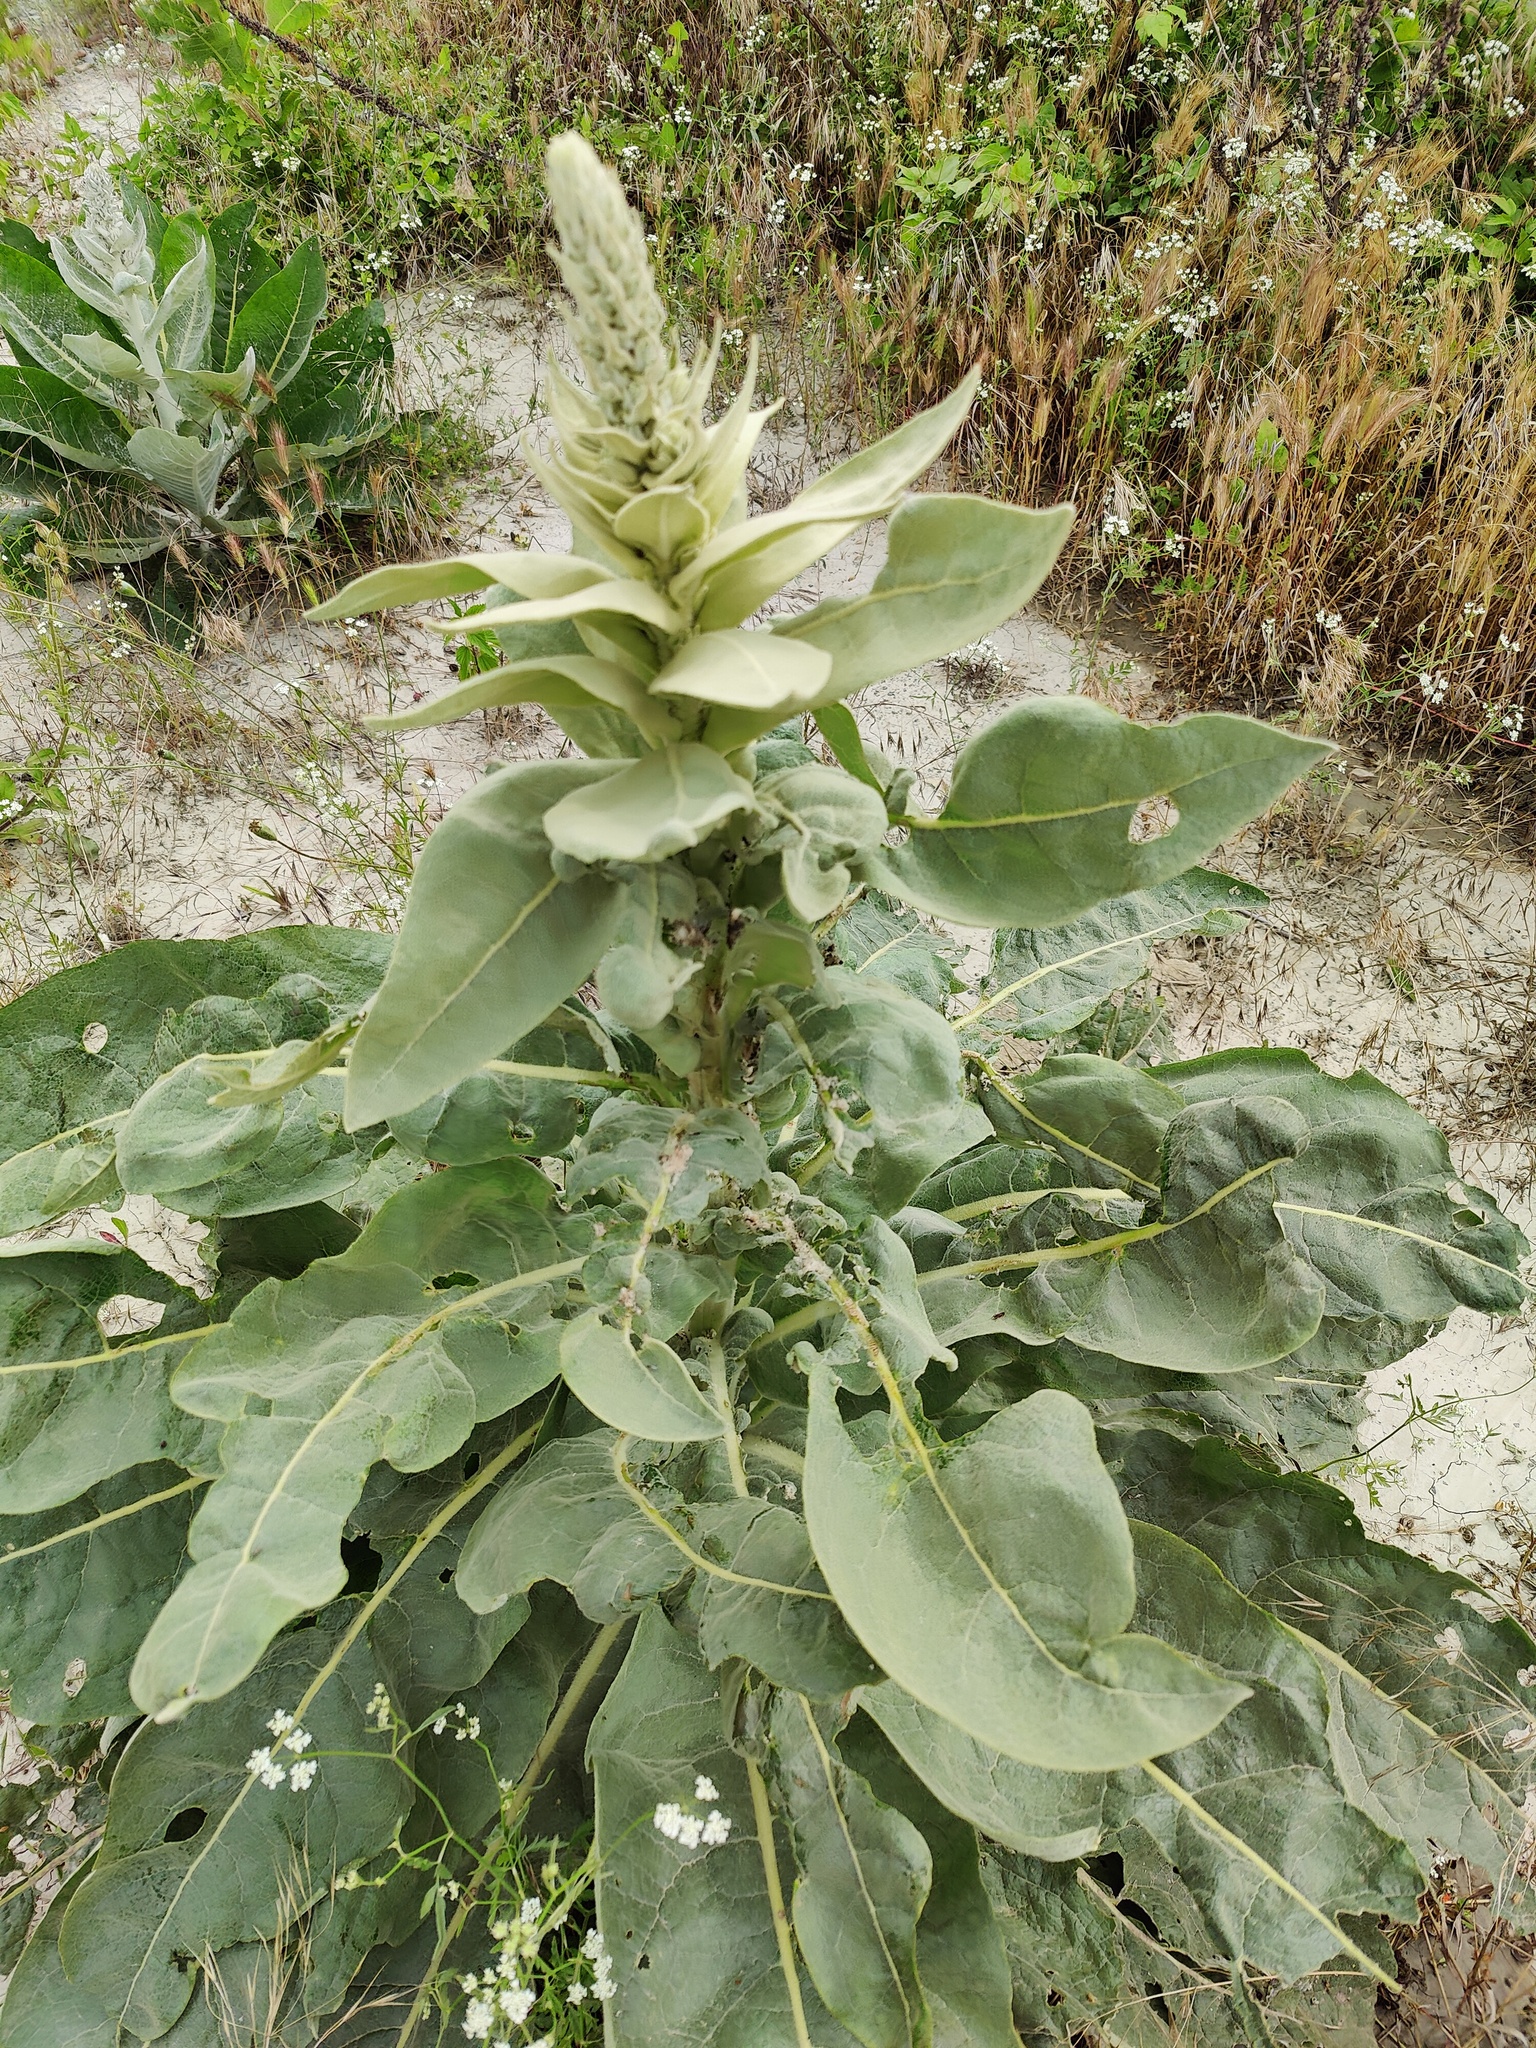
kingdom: Plantae
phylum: Tracheophyta
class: Magnoliopsida
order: Lamiales
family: Scrophulariaceae
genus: Verbascum
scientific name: Verbascum gnaphalodes
